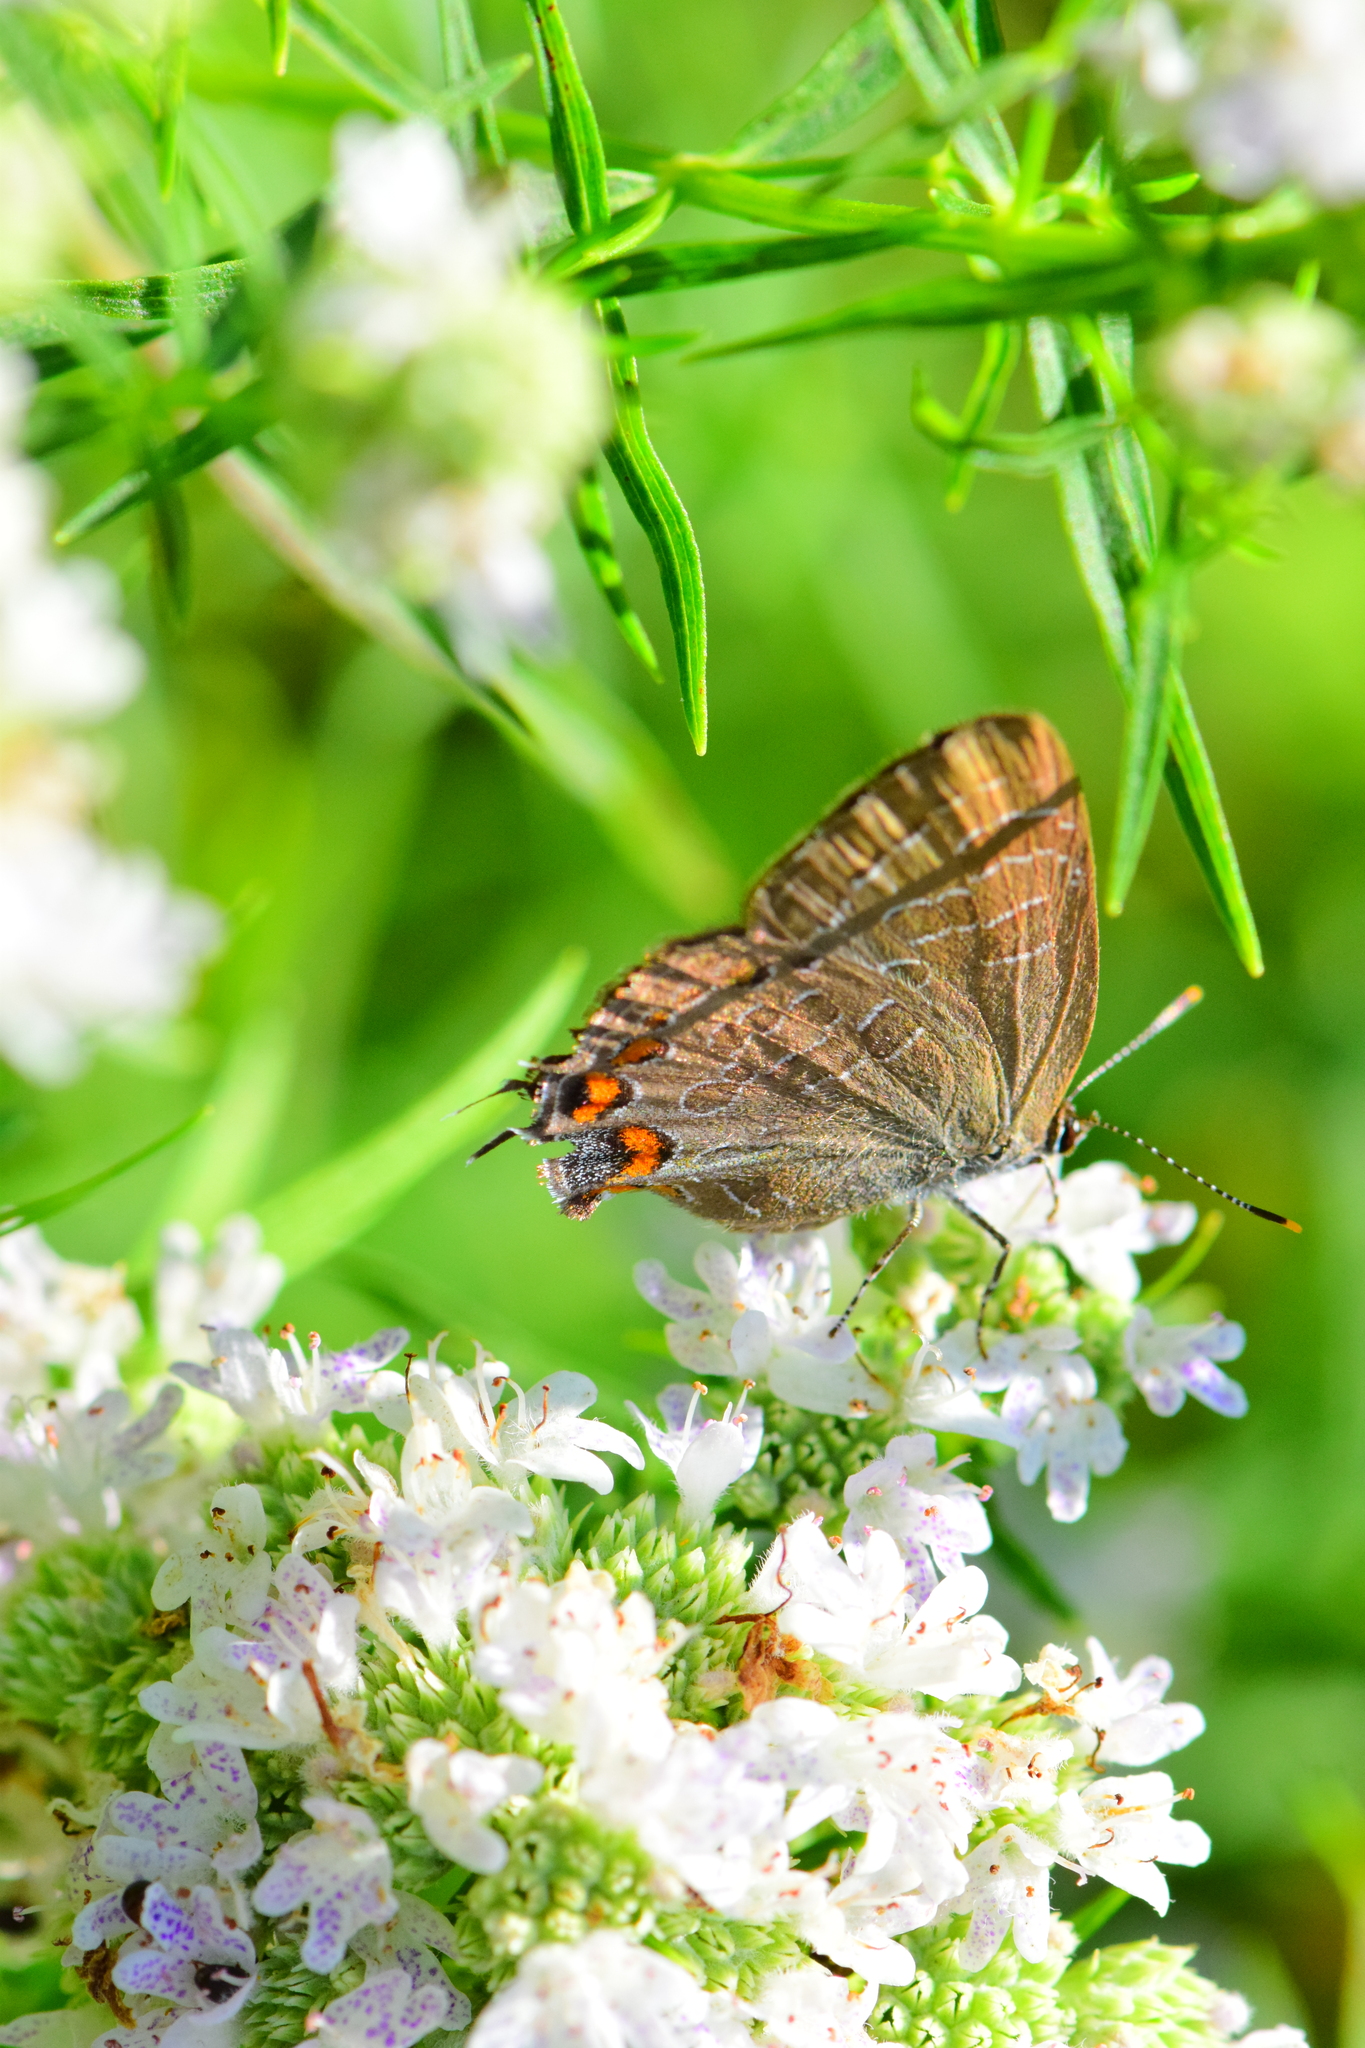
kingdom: Animalia
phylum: Arthropoda
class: Insecta
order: Lepidoptera
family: Lycaenidae
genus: Satyrium
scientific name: Satyrium liparops
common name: Striped hairstreak
